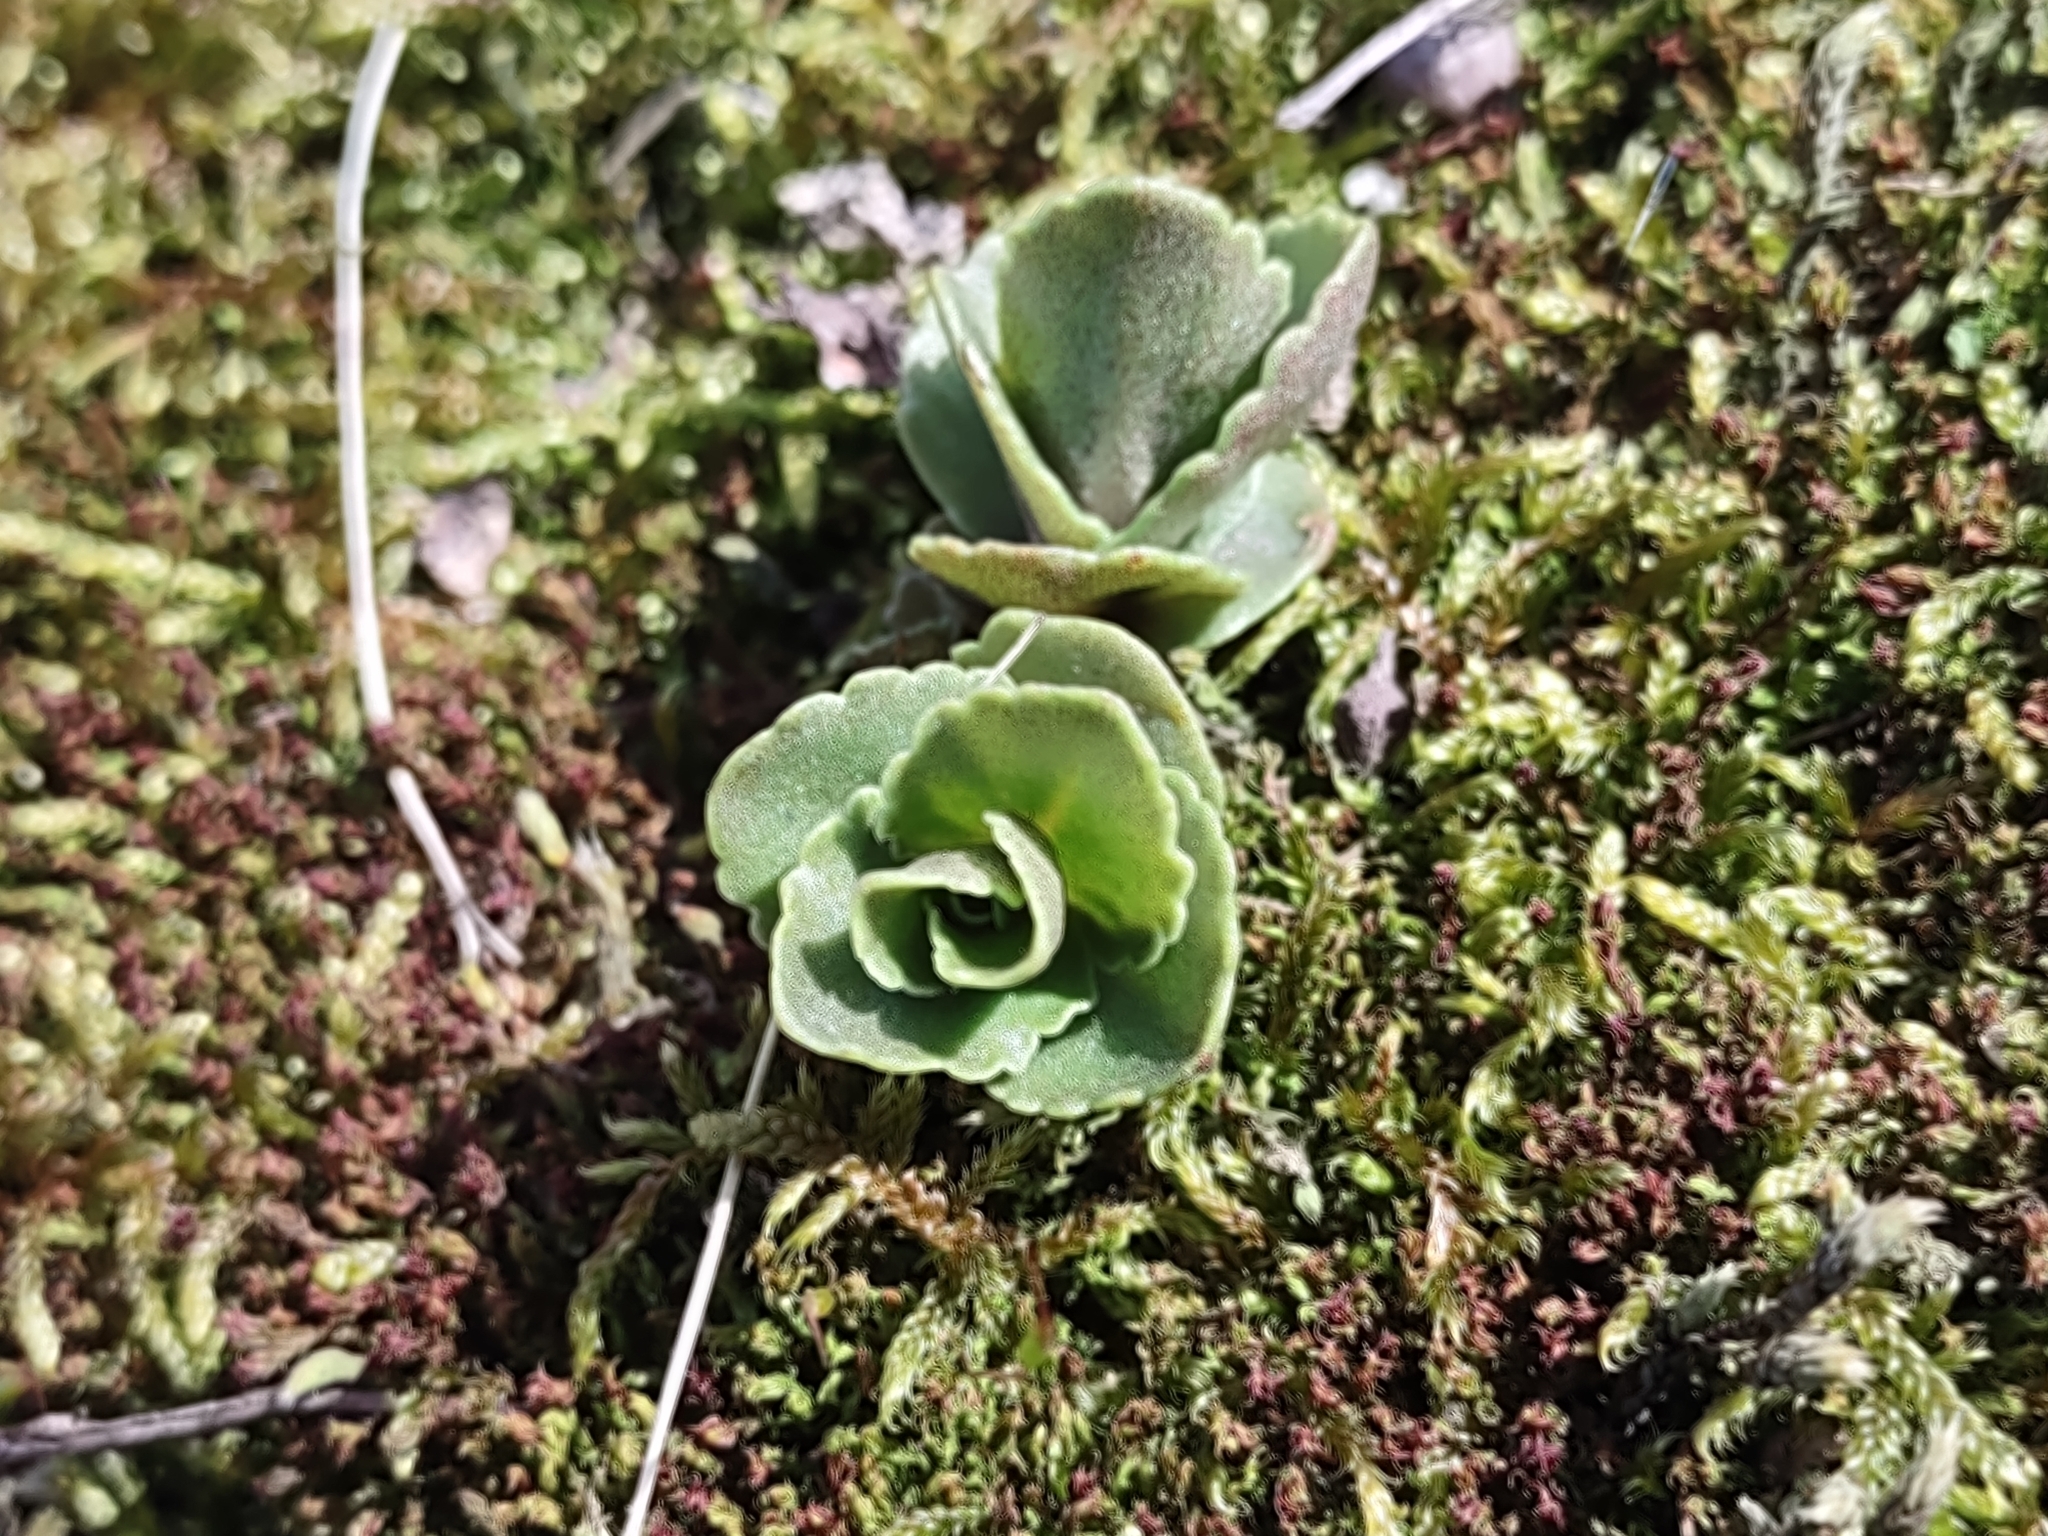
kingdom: Plantae
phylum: Tracheophyta
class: Magnoliopsida
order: Saxifragales
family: Crassulaceae
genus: Hylotelephium
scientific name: Hylotelephium maximum
